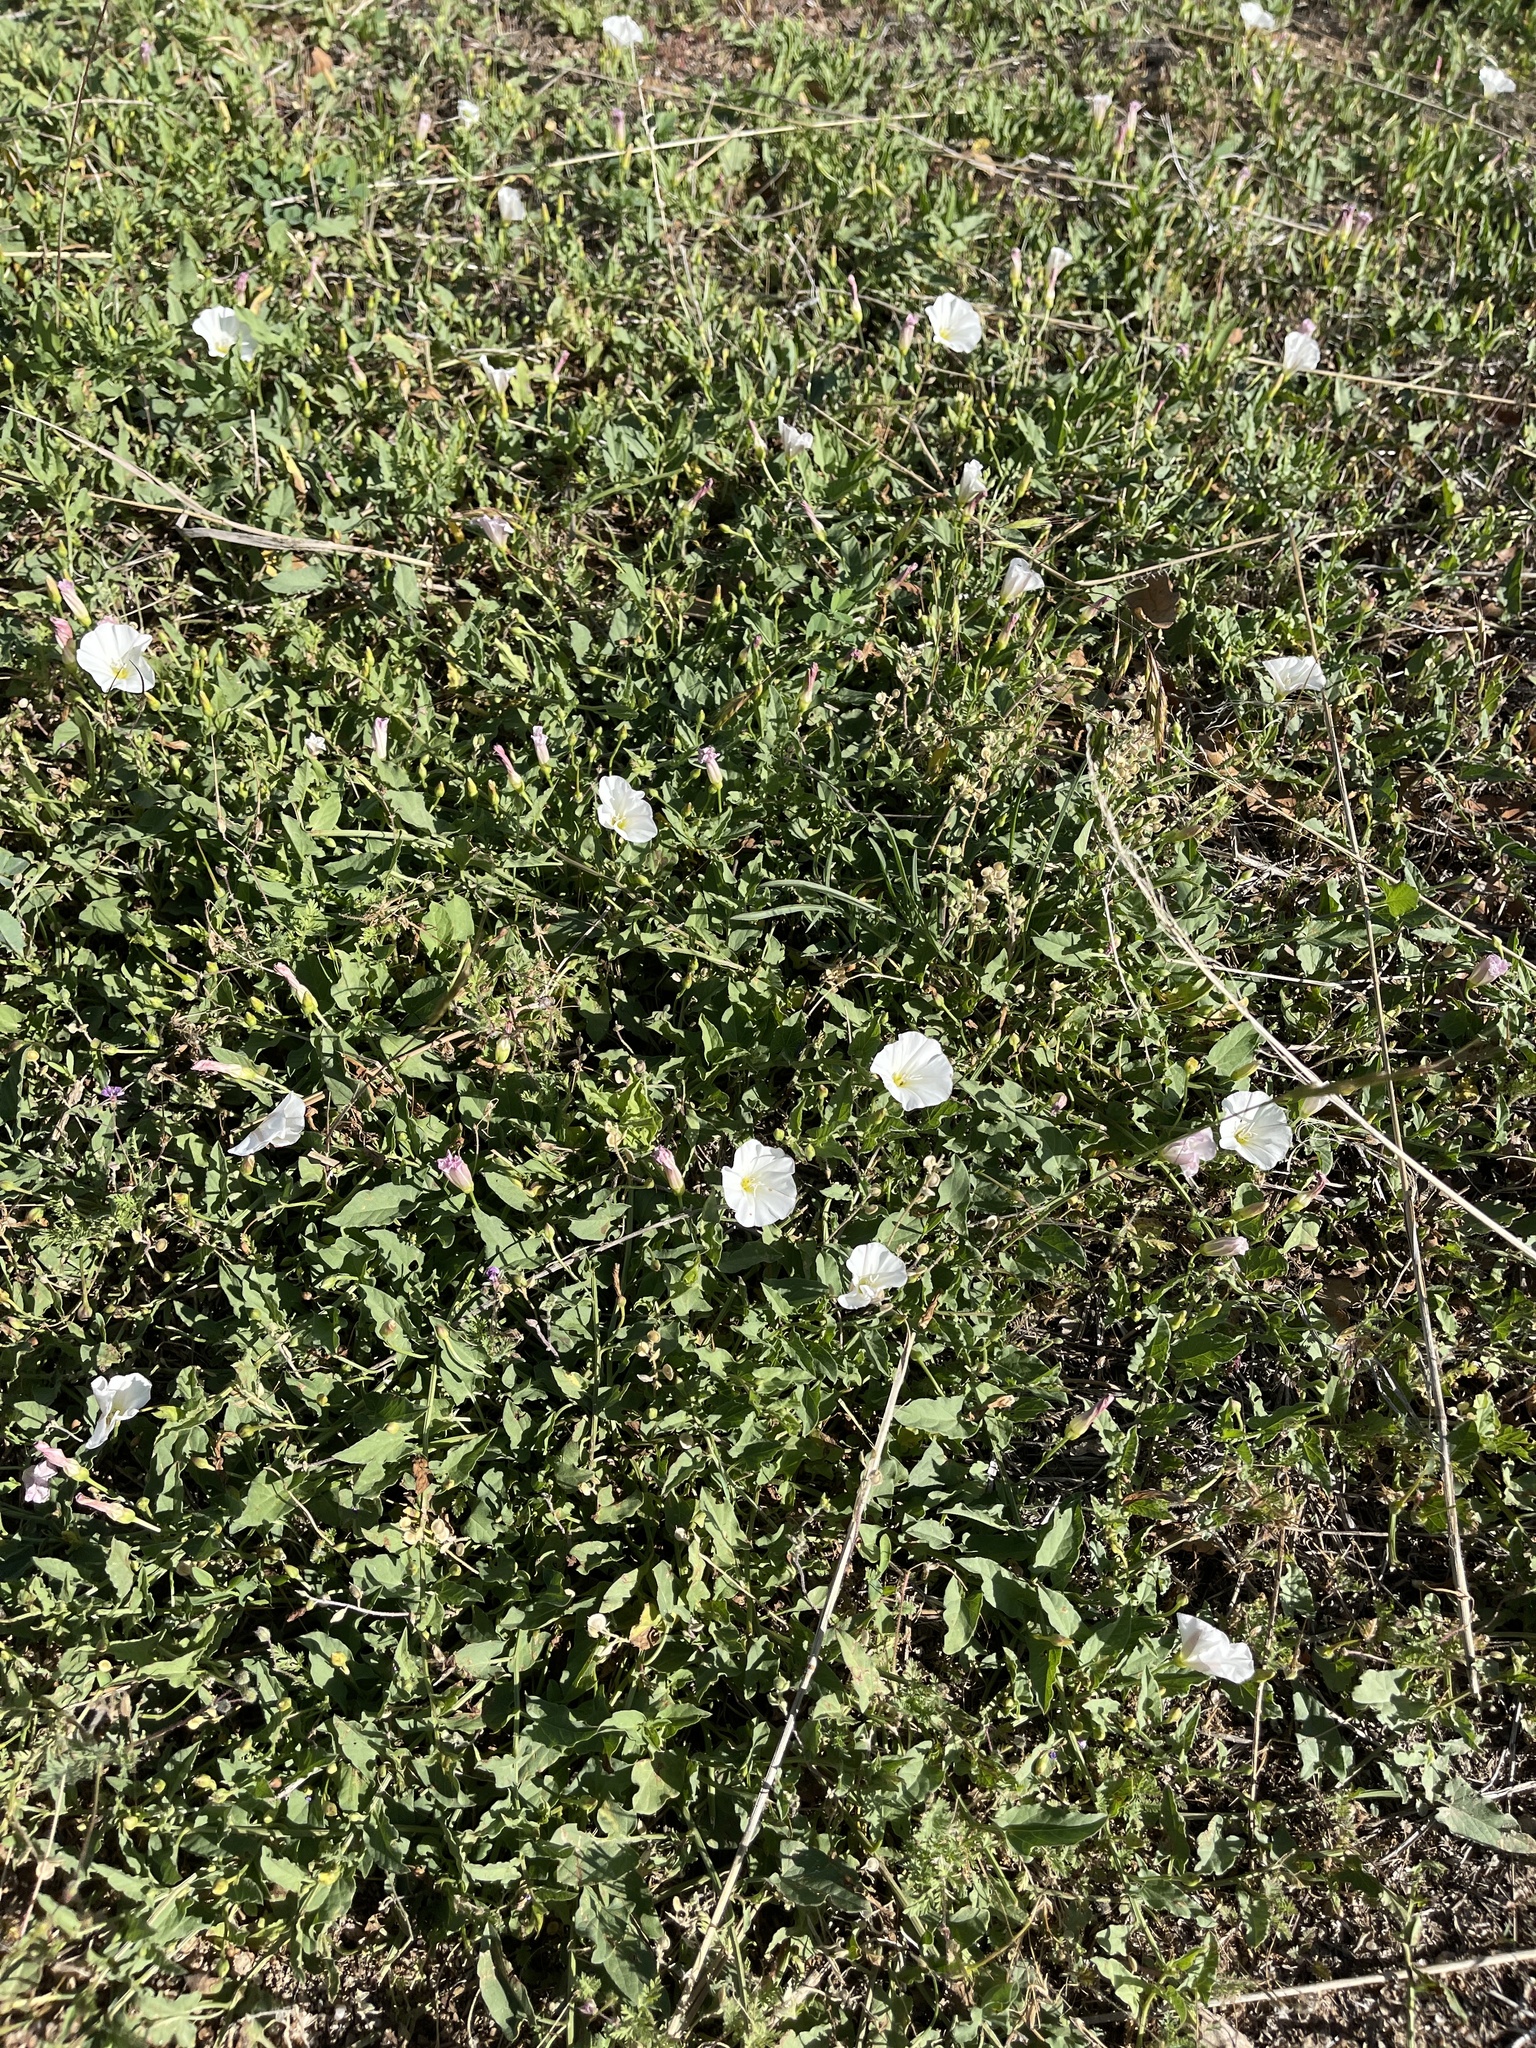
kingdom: Plantae
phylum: Tracheophyta
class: Magnoliopsida
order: Solanales
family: Convolvulaceae
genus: Convolvulus
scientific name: Convolvulus arvensis
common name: Field bindweed
